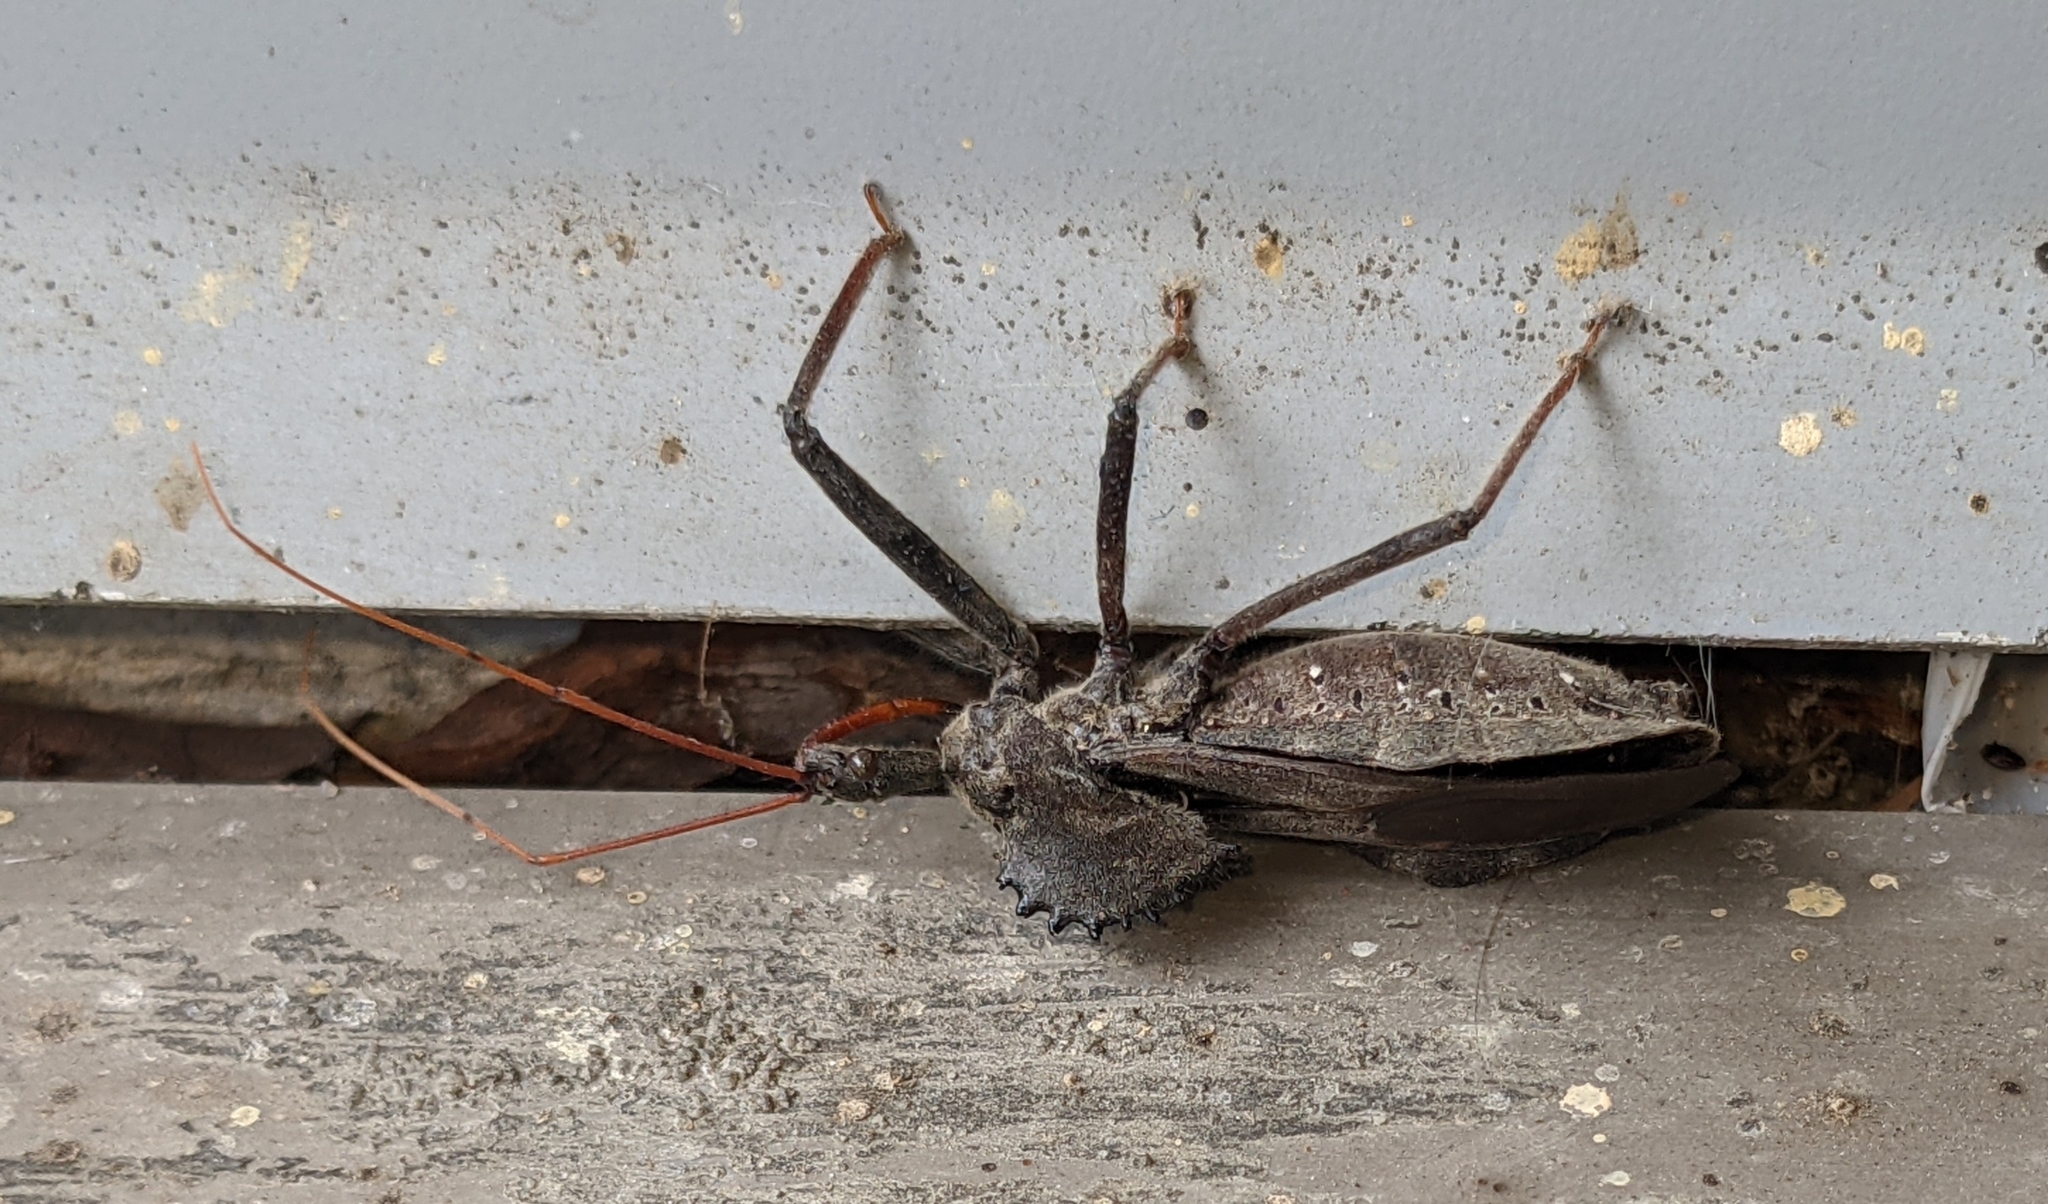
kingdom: Animalia
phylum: Arthropoda
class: Insecta
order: Hemiptera
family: Reduviidae
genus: Arilus
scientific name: Arilus cristatus
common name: North american wheel bug
